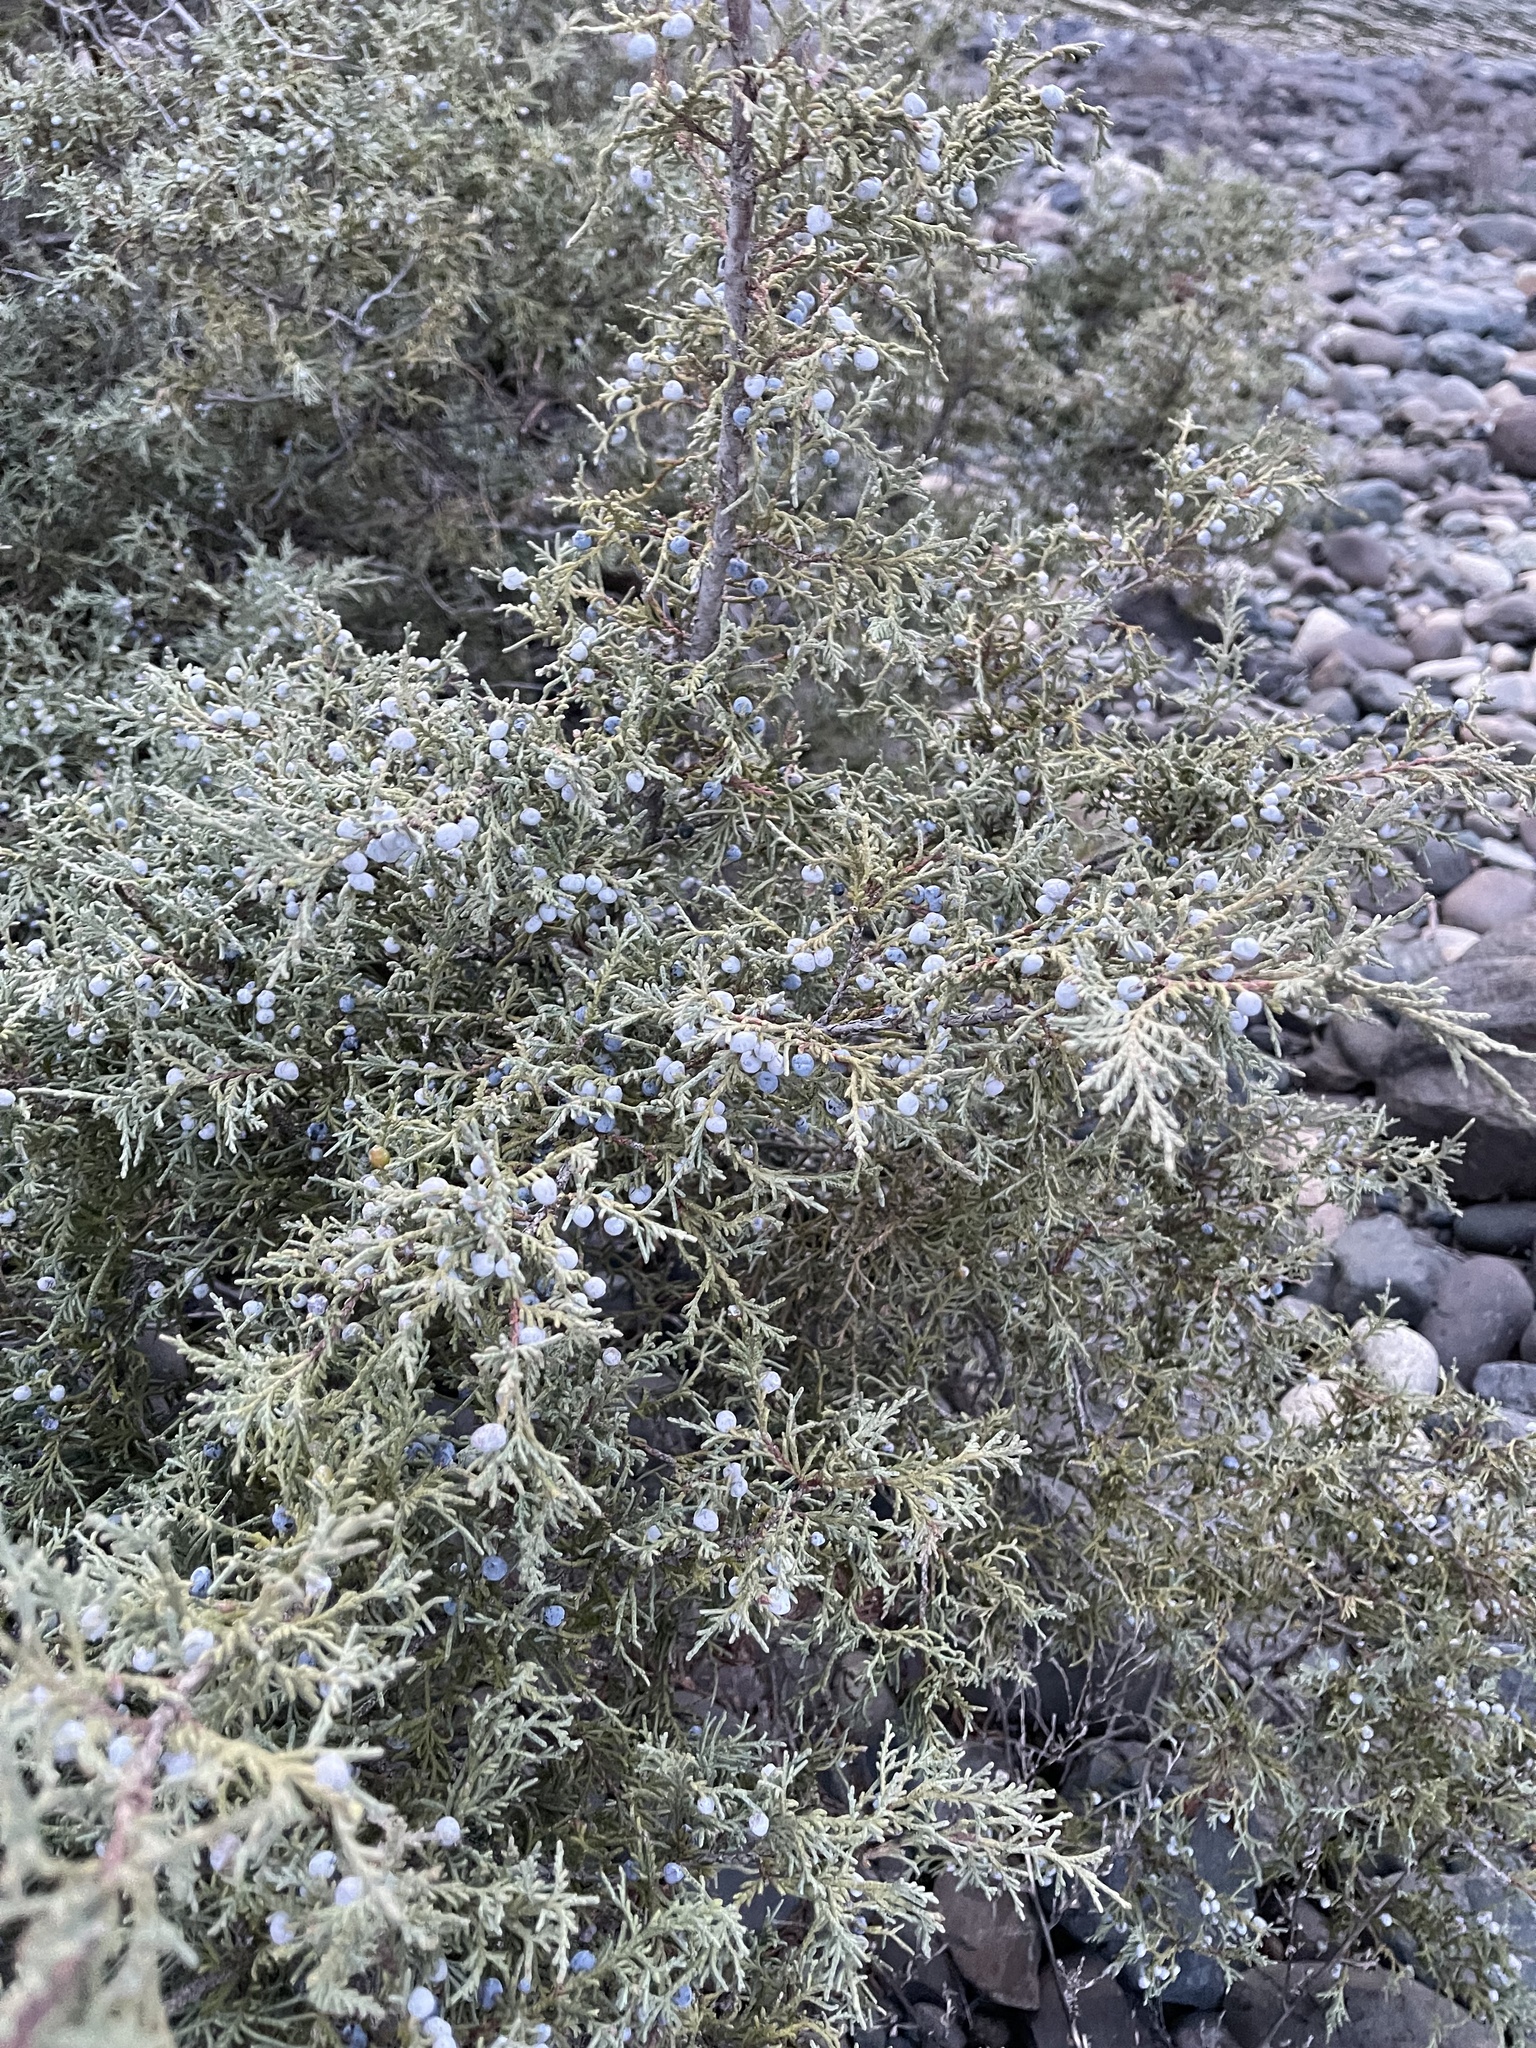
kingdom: Plantae
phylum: Tracheophyta
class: Pinopsida
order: Pinales
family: Cupressaceae
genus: Juniperus
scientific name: Juniperus scopulorum
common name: Rocky mountain juniper
